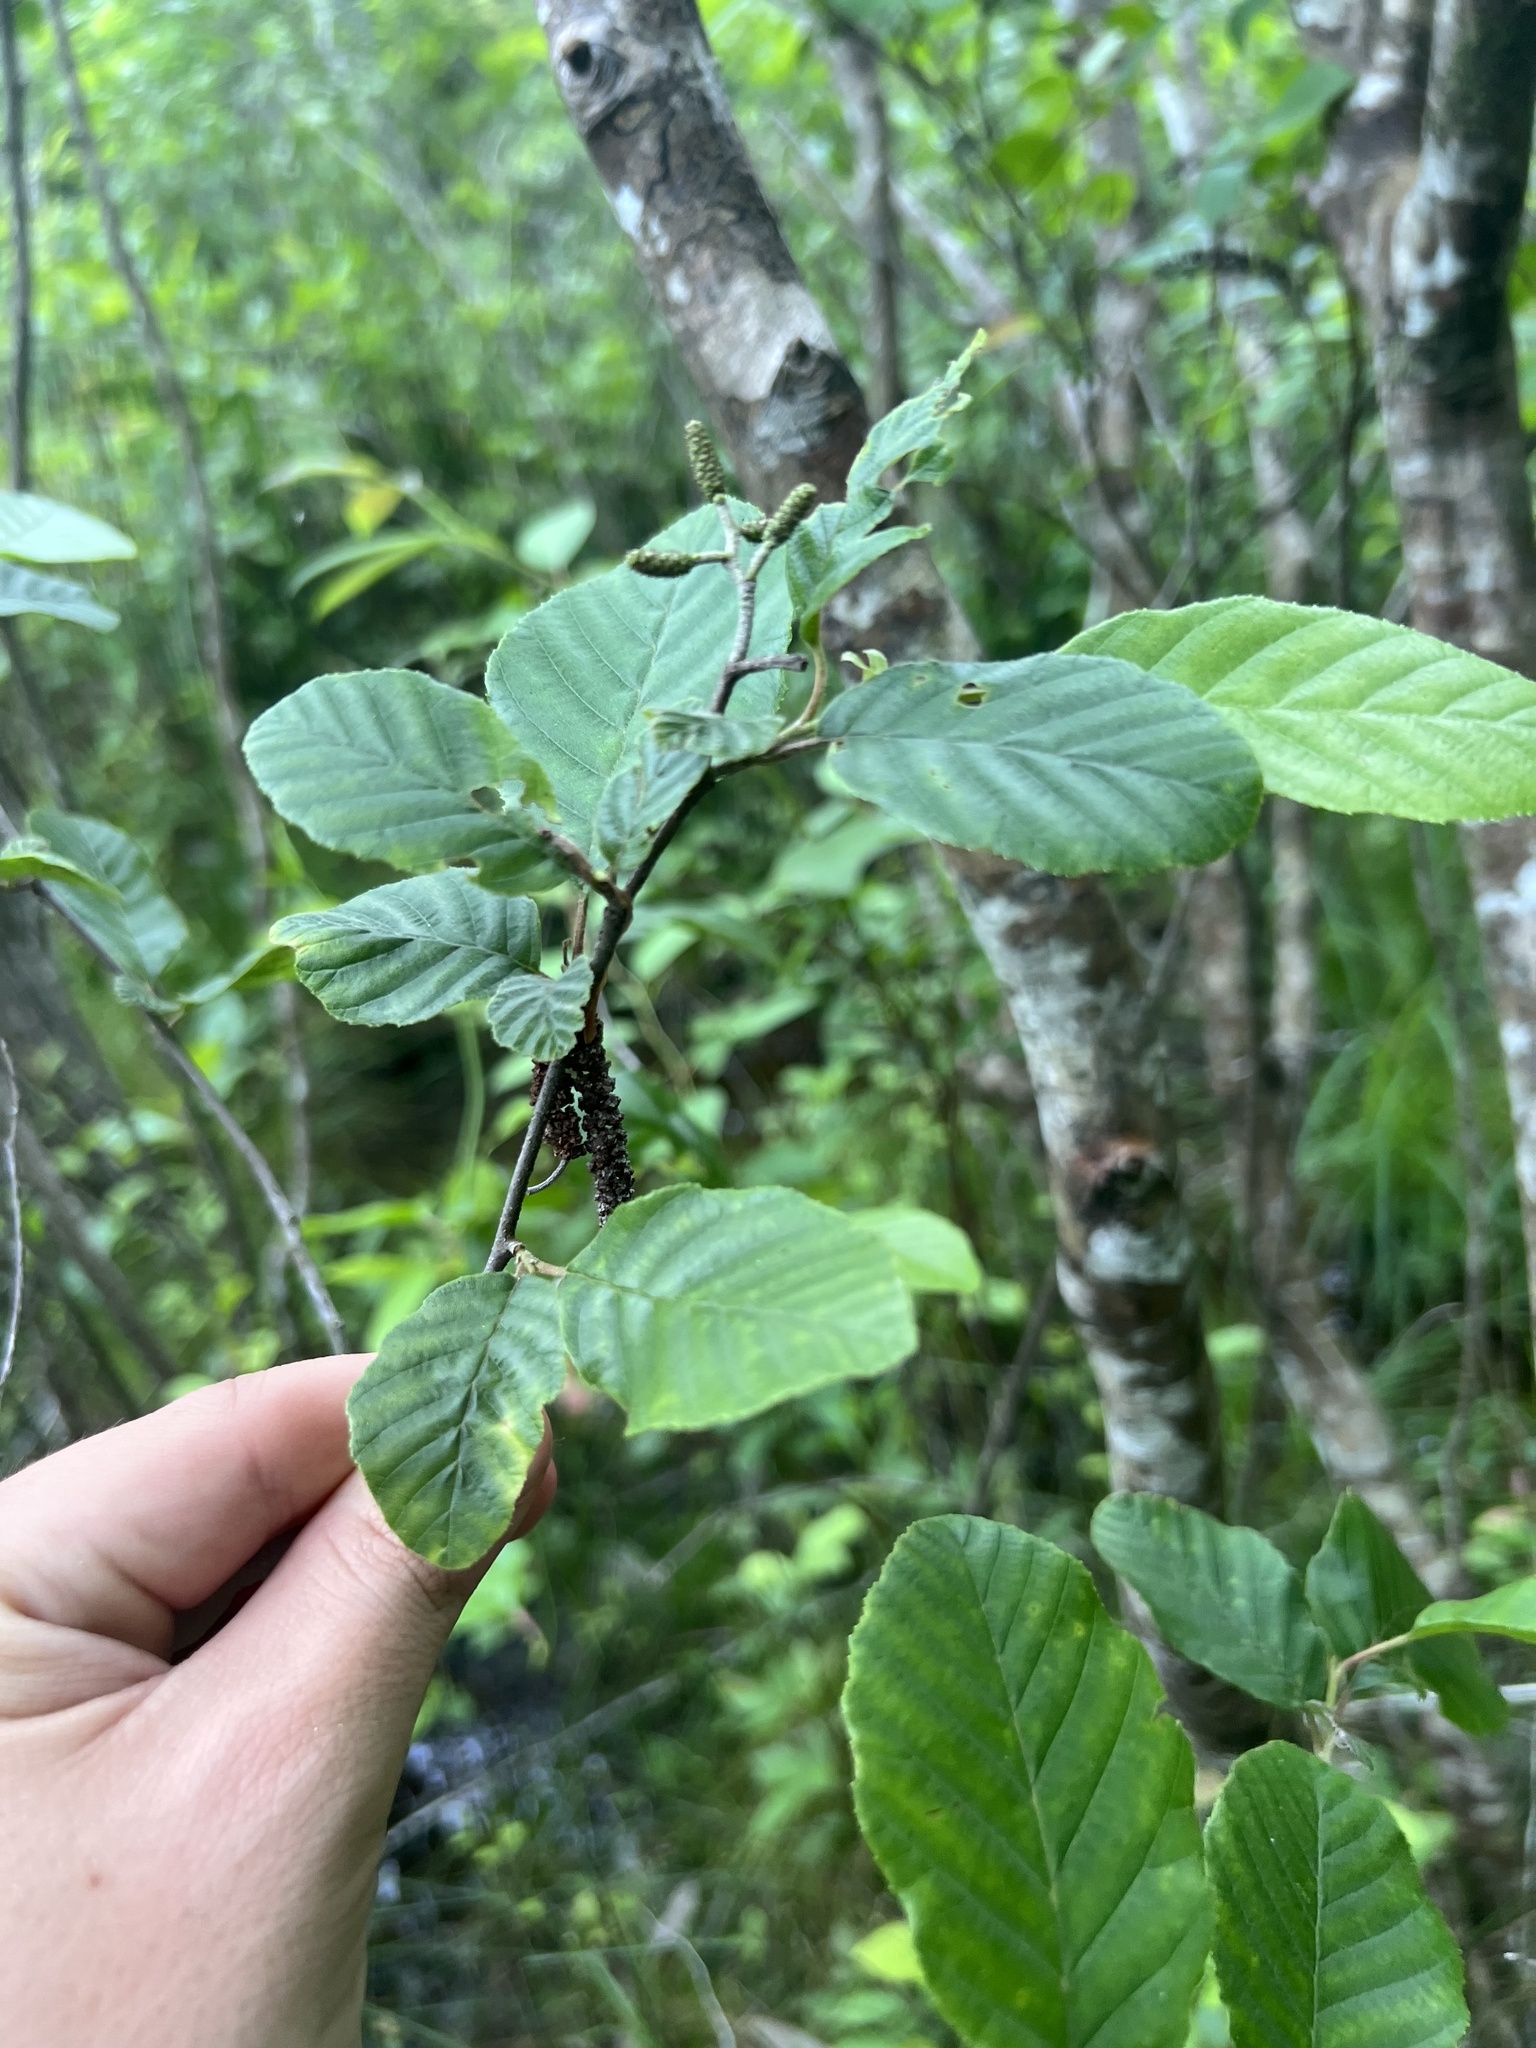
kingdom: Plantae
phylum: Tracheophyta
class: Magnoliopsida
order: Fagales
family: Betulaceae
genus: Alnus
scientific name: Alnus serrulata
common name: Hazel alder
